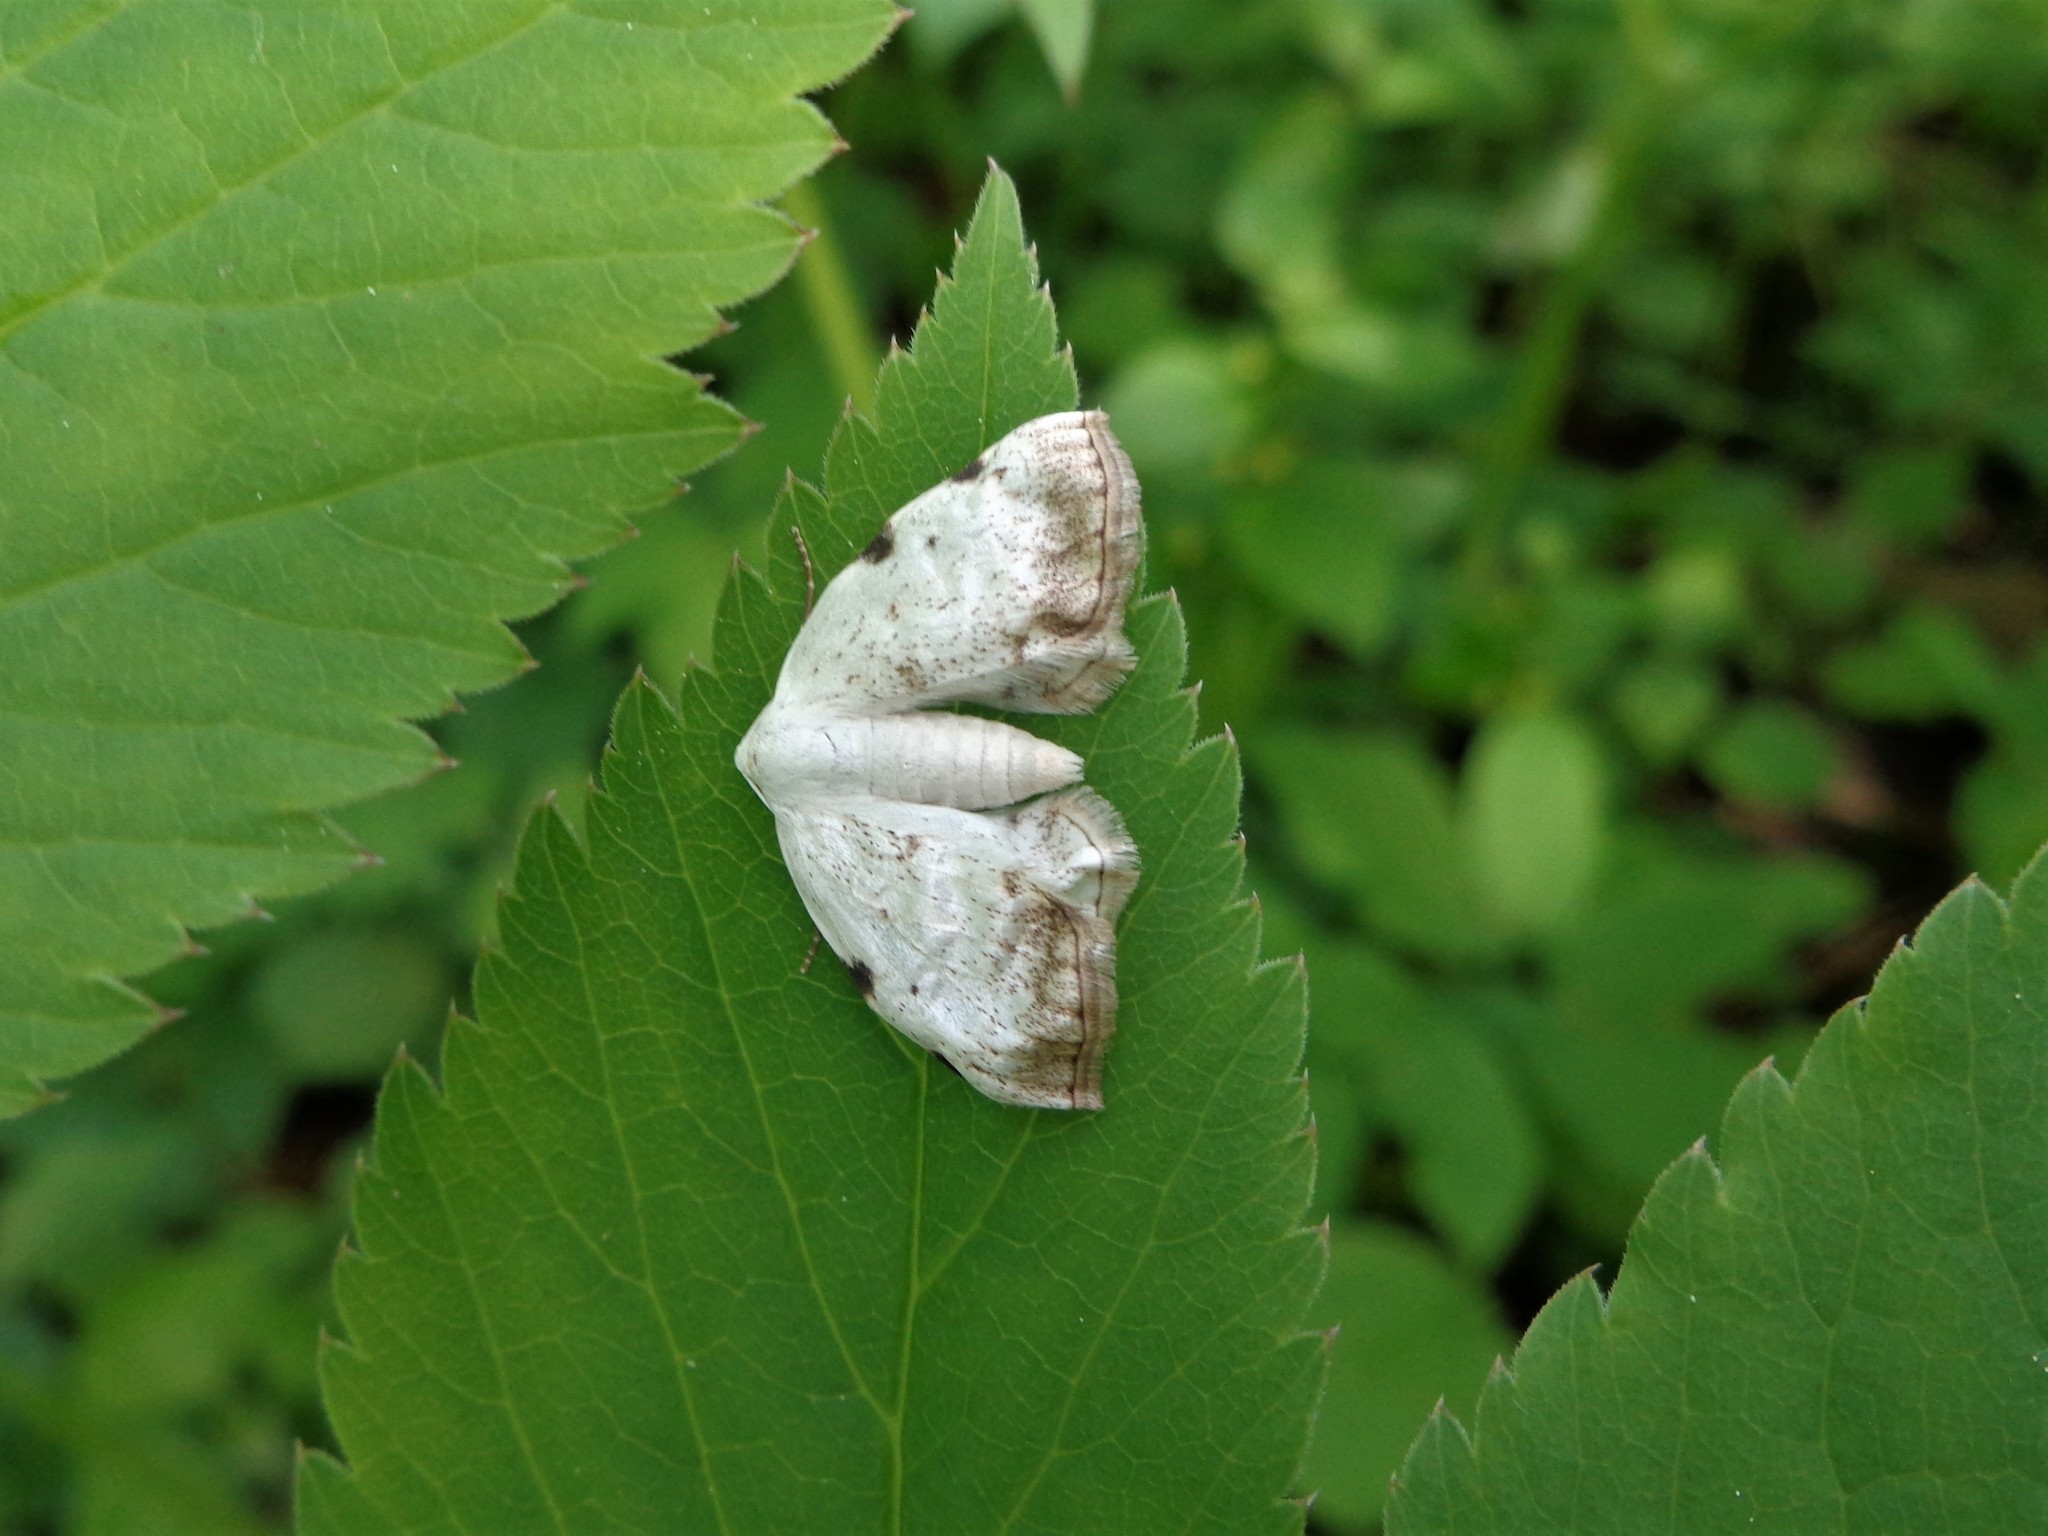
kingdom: Animalia
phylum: Arthropoda
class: Insecta
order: Lepidoptera
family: Geometridae
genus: Lomographa
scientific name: Lomographa bimaculata
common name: White-pinion spotted
